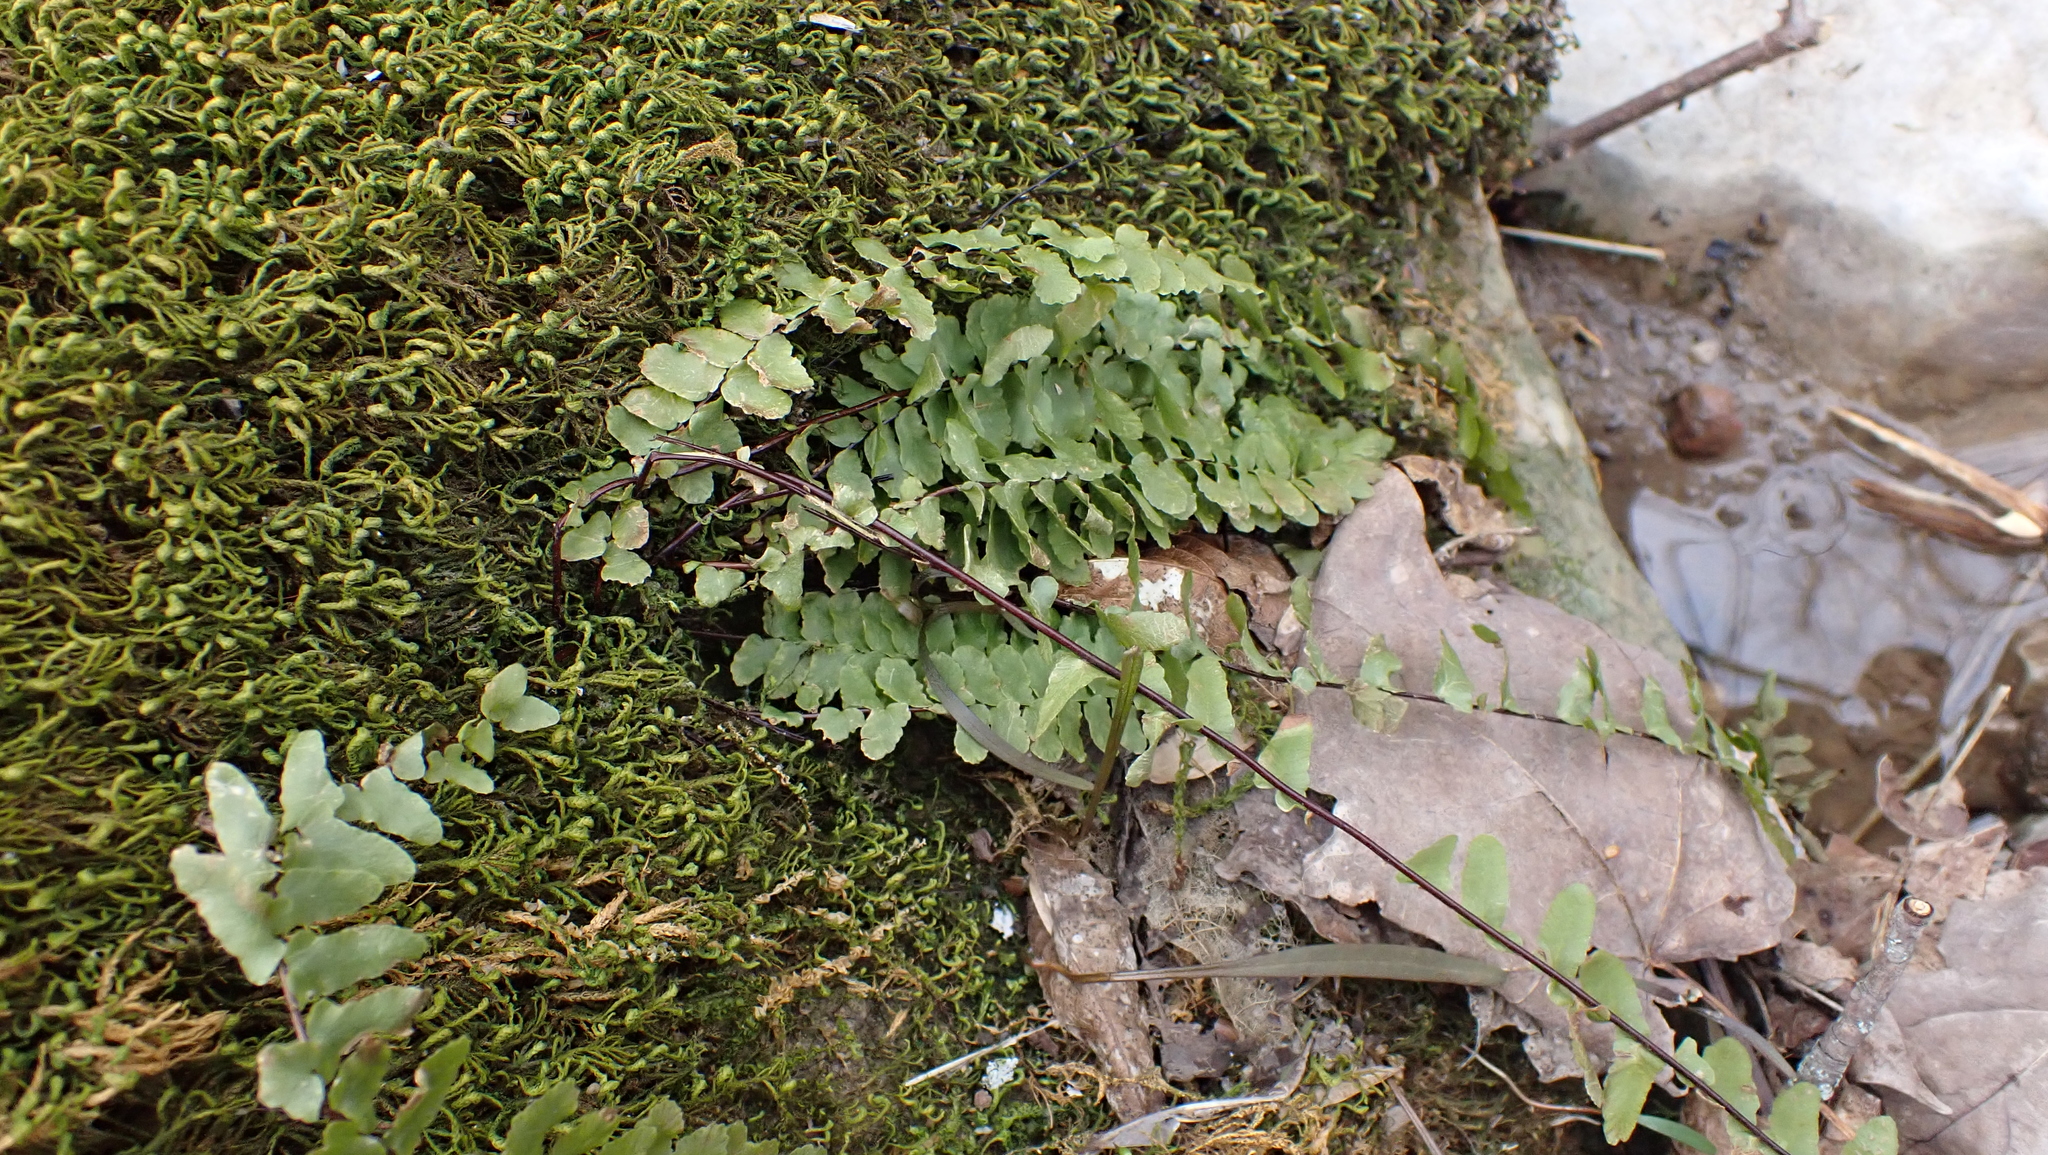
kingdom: Plantae
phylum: Tracheophyta
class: Polypodiopsida
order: Polypodiales
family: Aspleniaceae
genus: Asplenium
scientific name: Asplenium platyneuron
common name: Ebony spleenwort
